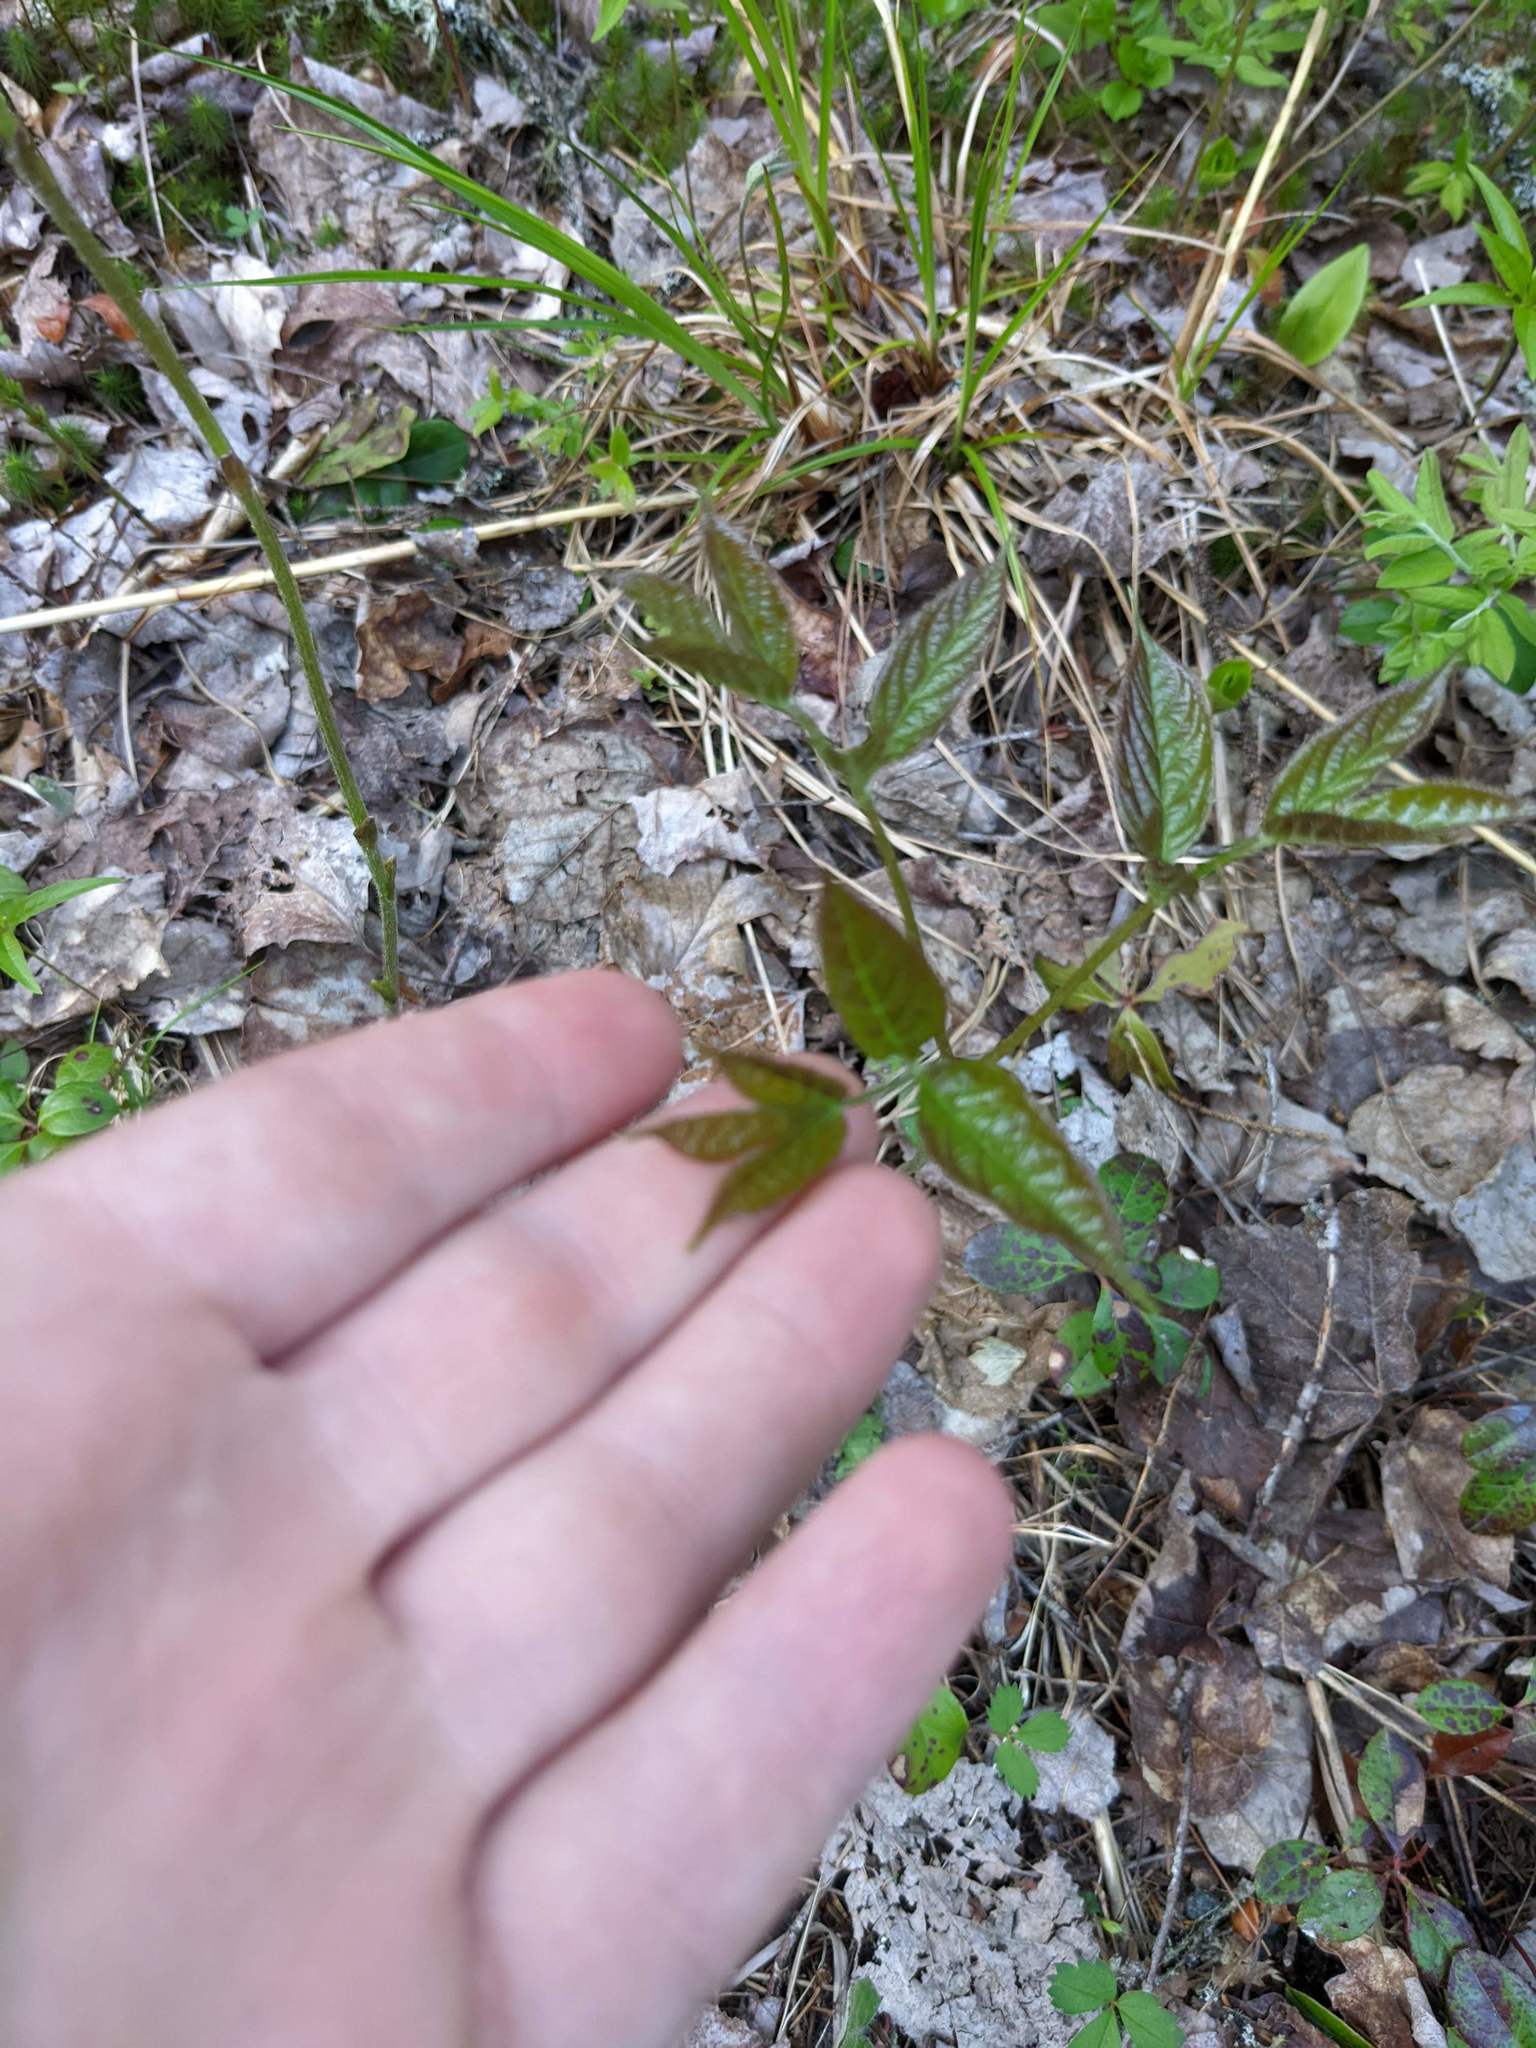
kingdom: Plantae
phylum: Tracheophyta
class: Magnoliopsida
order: Apiales
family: Araliaceae
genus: Aralia
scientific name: Aralia nudicaulis
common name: Wild sarsaparilla
